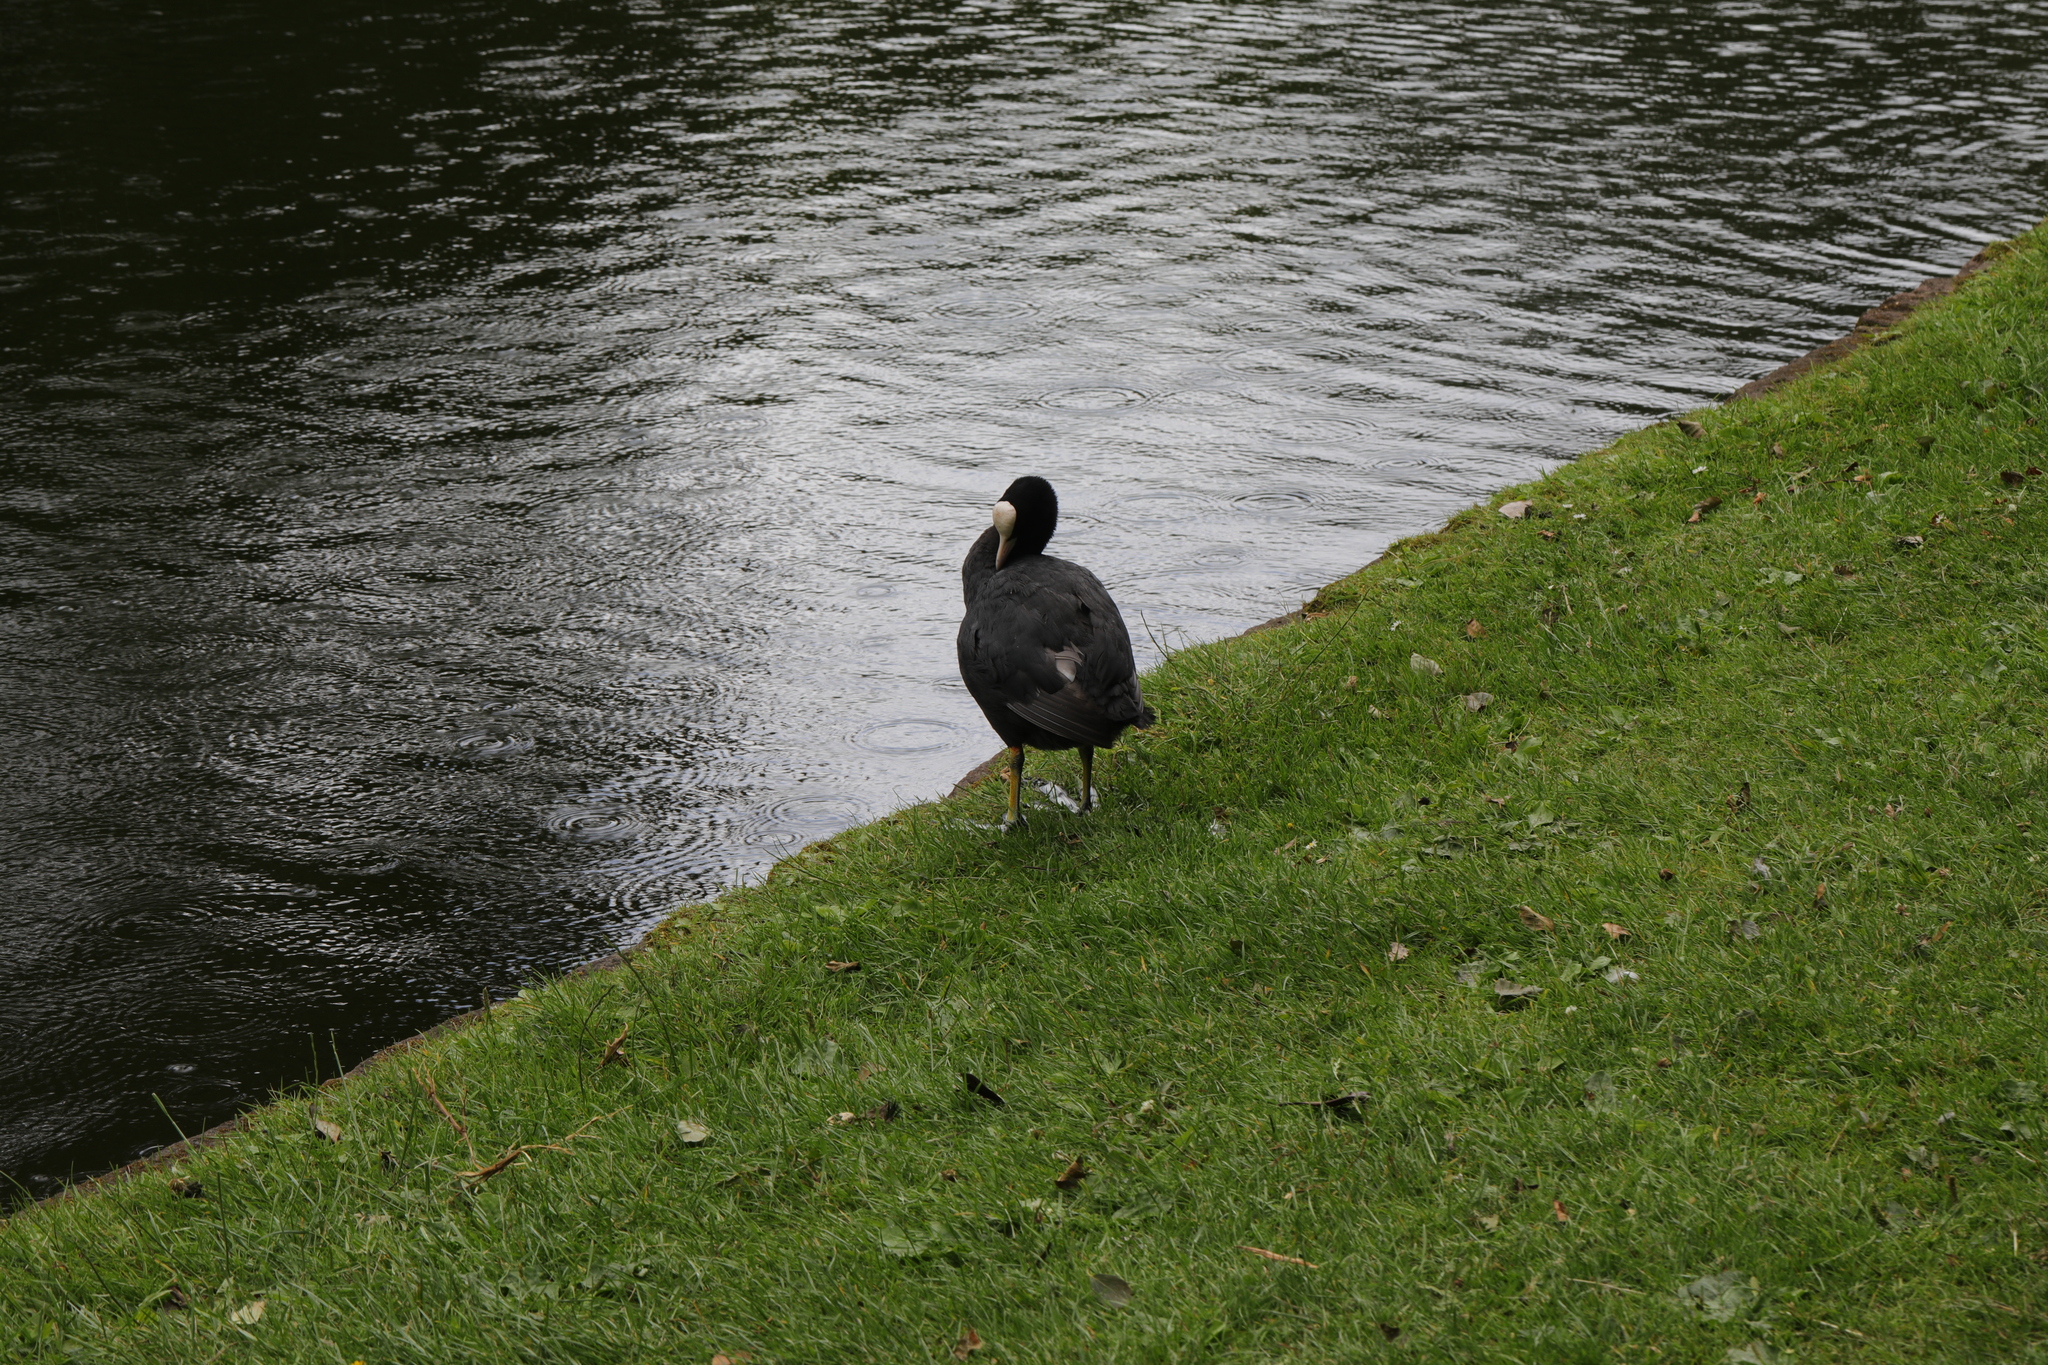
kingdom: Animalia
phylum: Chordata
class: Aves
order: Gruiformes
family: Rallidae
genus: Fulica
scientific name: Fulica atra
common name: Eurasian coot
